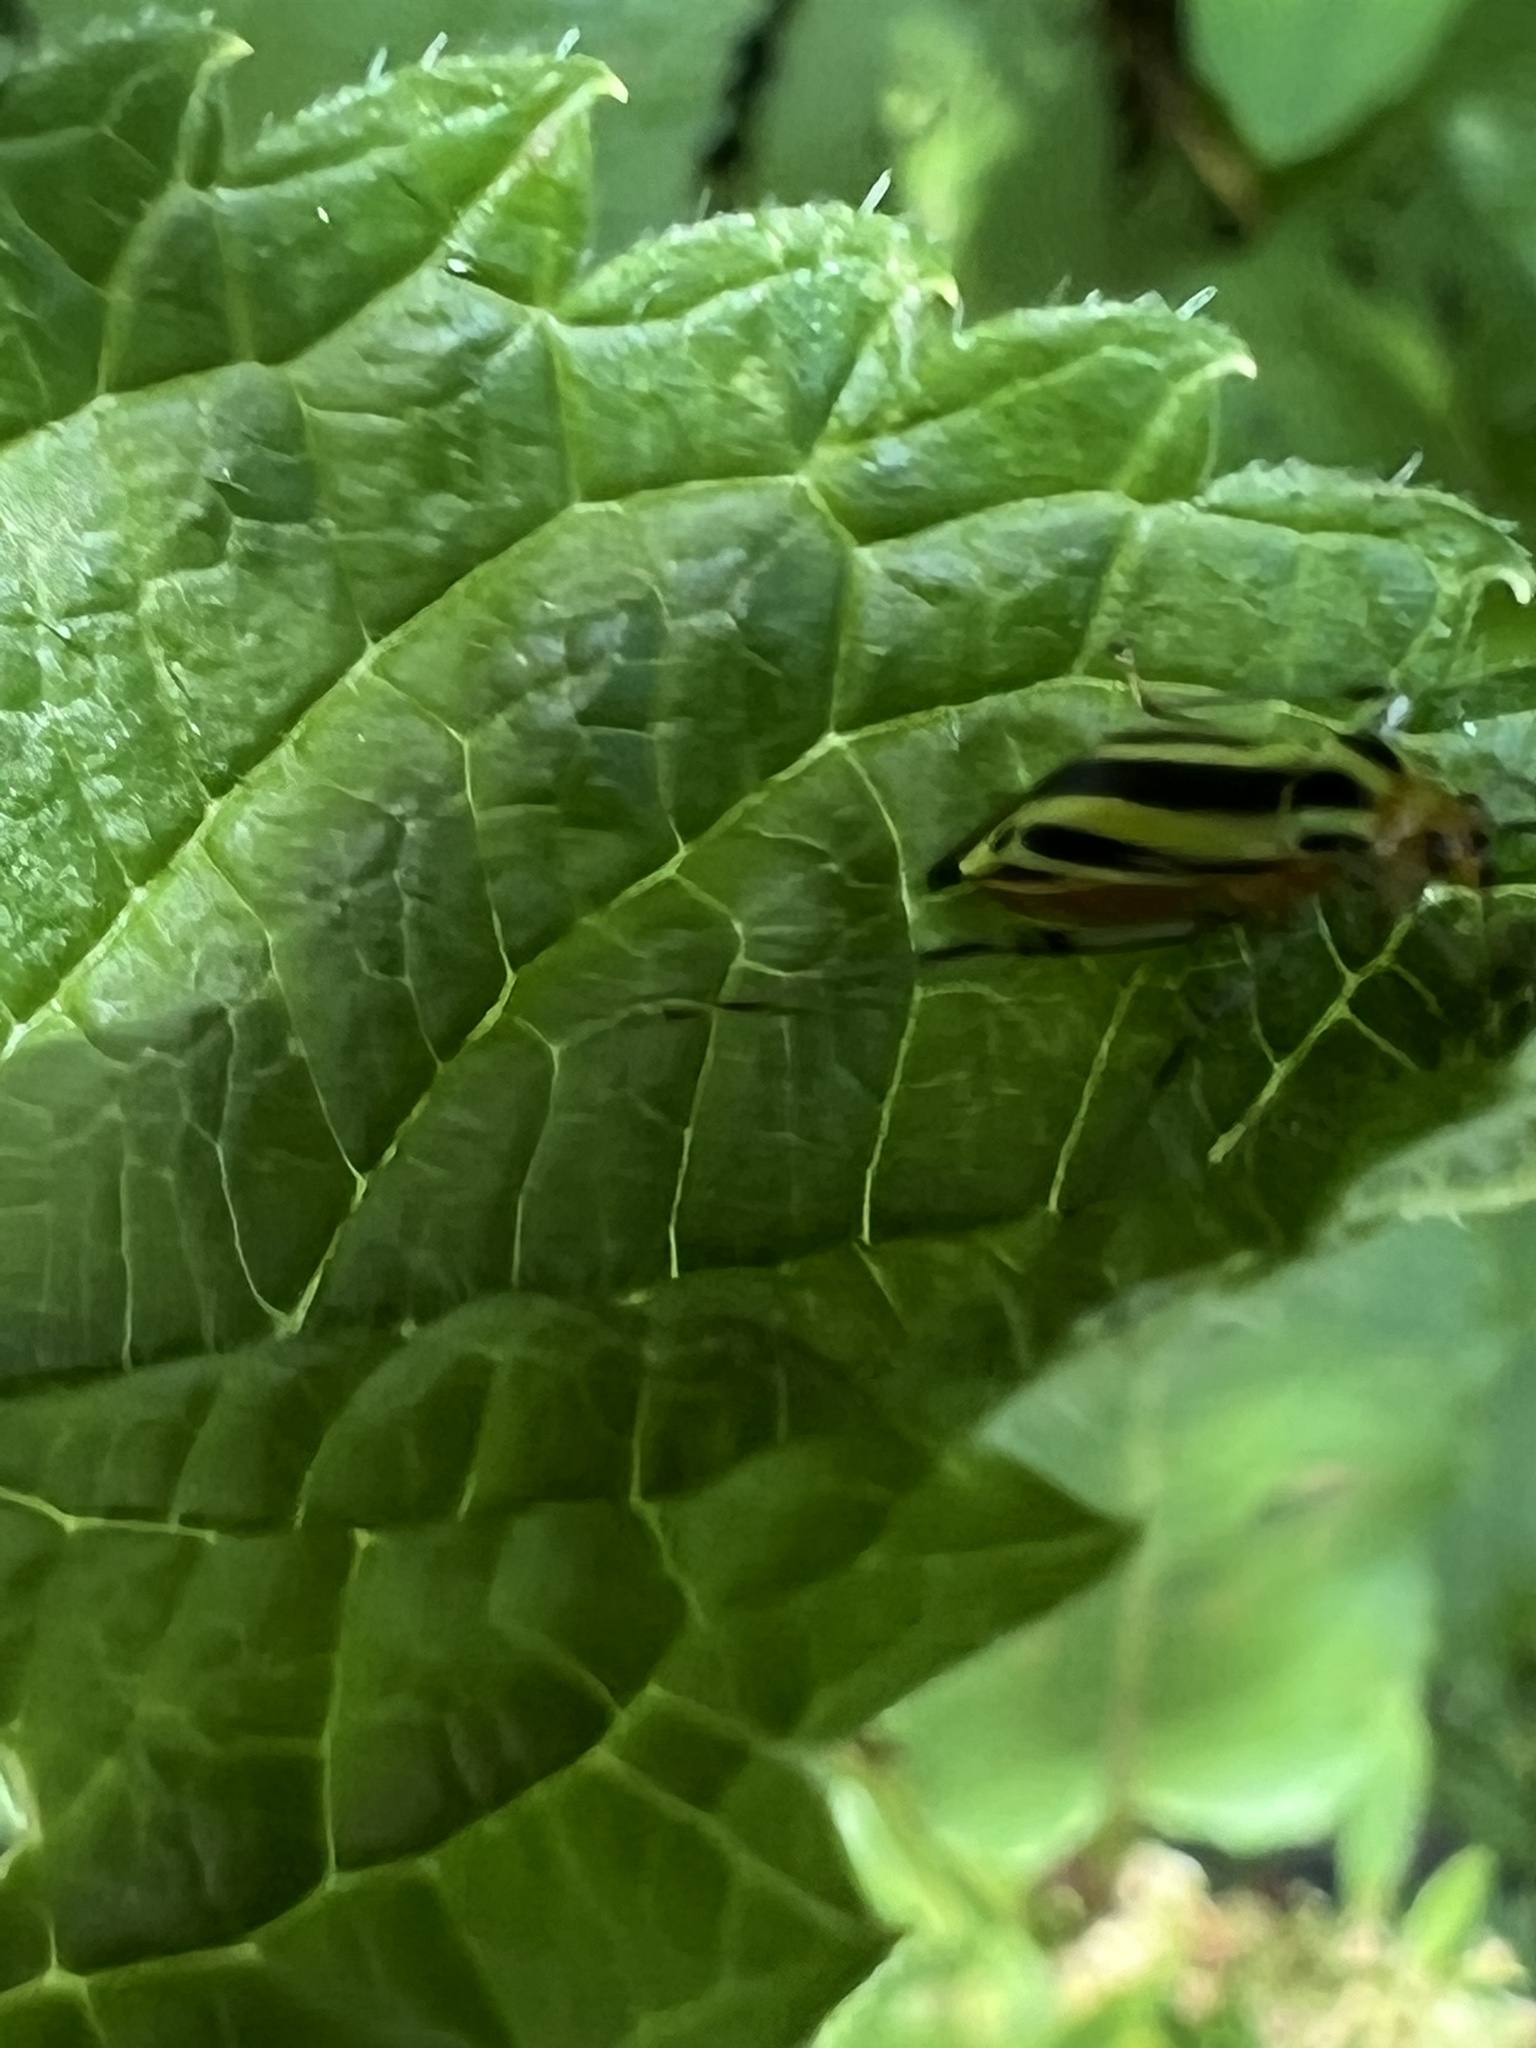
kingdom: Animalia
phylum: Arthropoda
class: Insecta
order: Hemiptera
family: Miridae
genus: Poecilocapsus
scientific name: Poecilocapsus lineatus
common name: Four-lined plant bug
